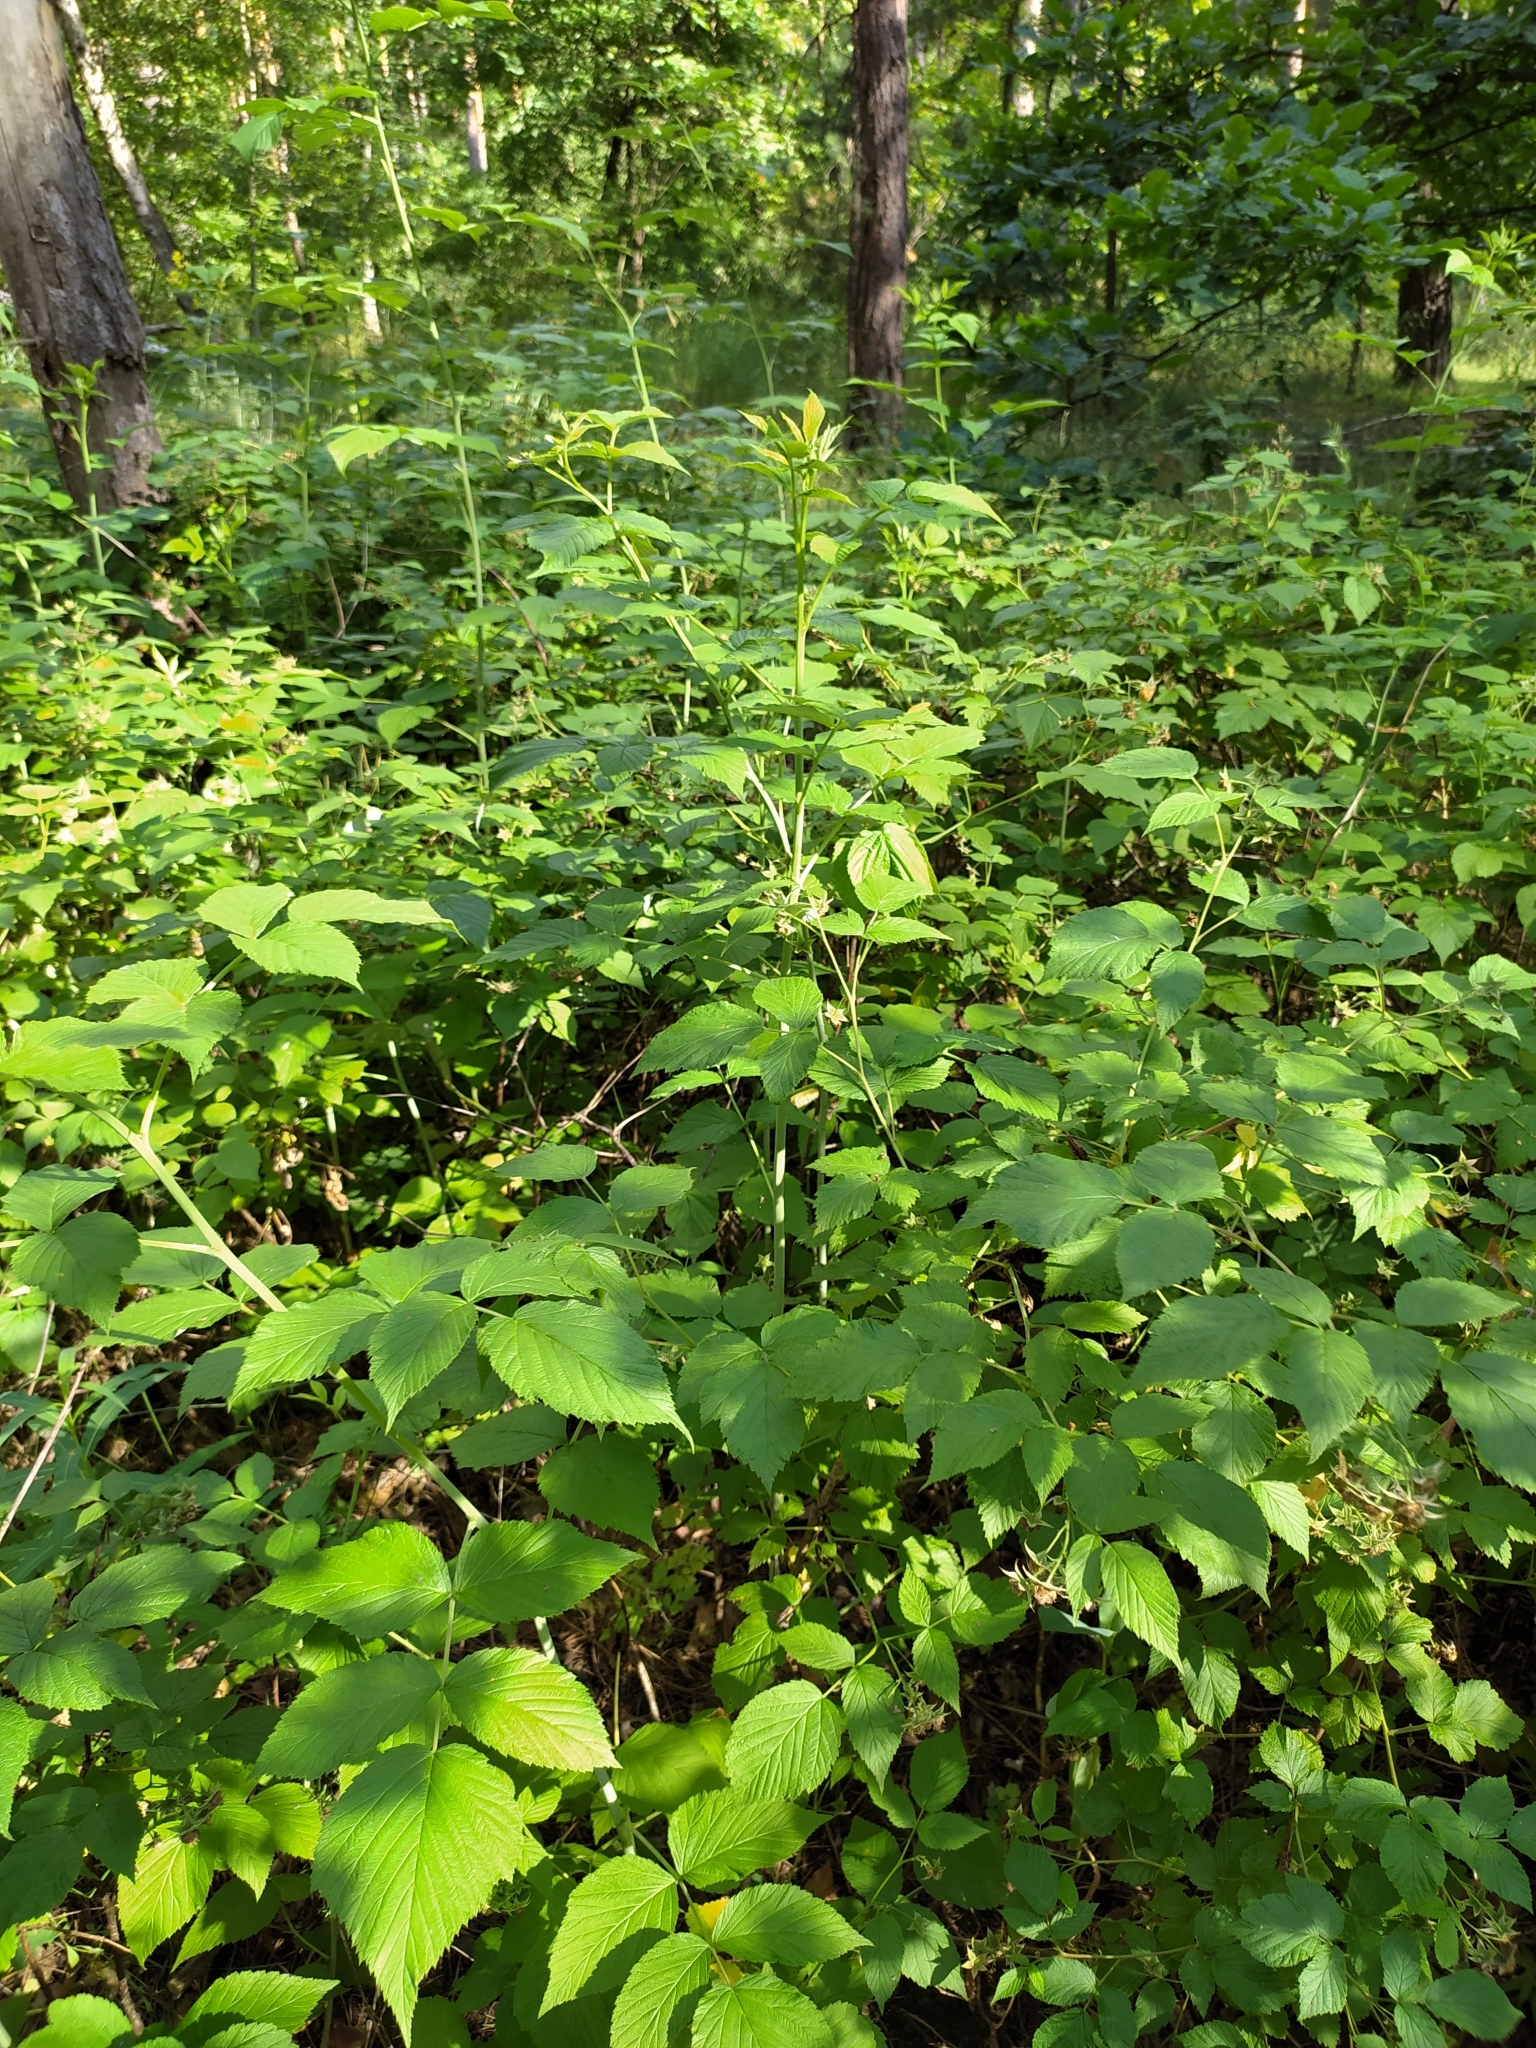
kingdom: Plantae
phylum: Tracheophyta
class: Magnoliopsida
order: Rosales
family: Rosaceae
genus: Rubus
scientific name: Rubus idaeus
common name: Raspberry
